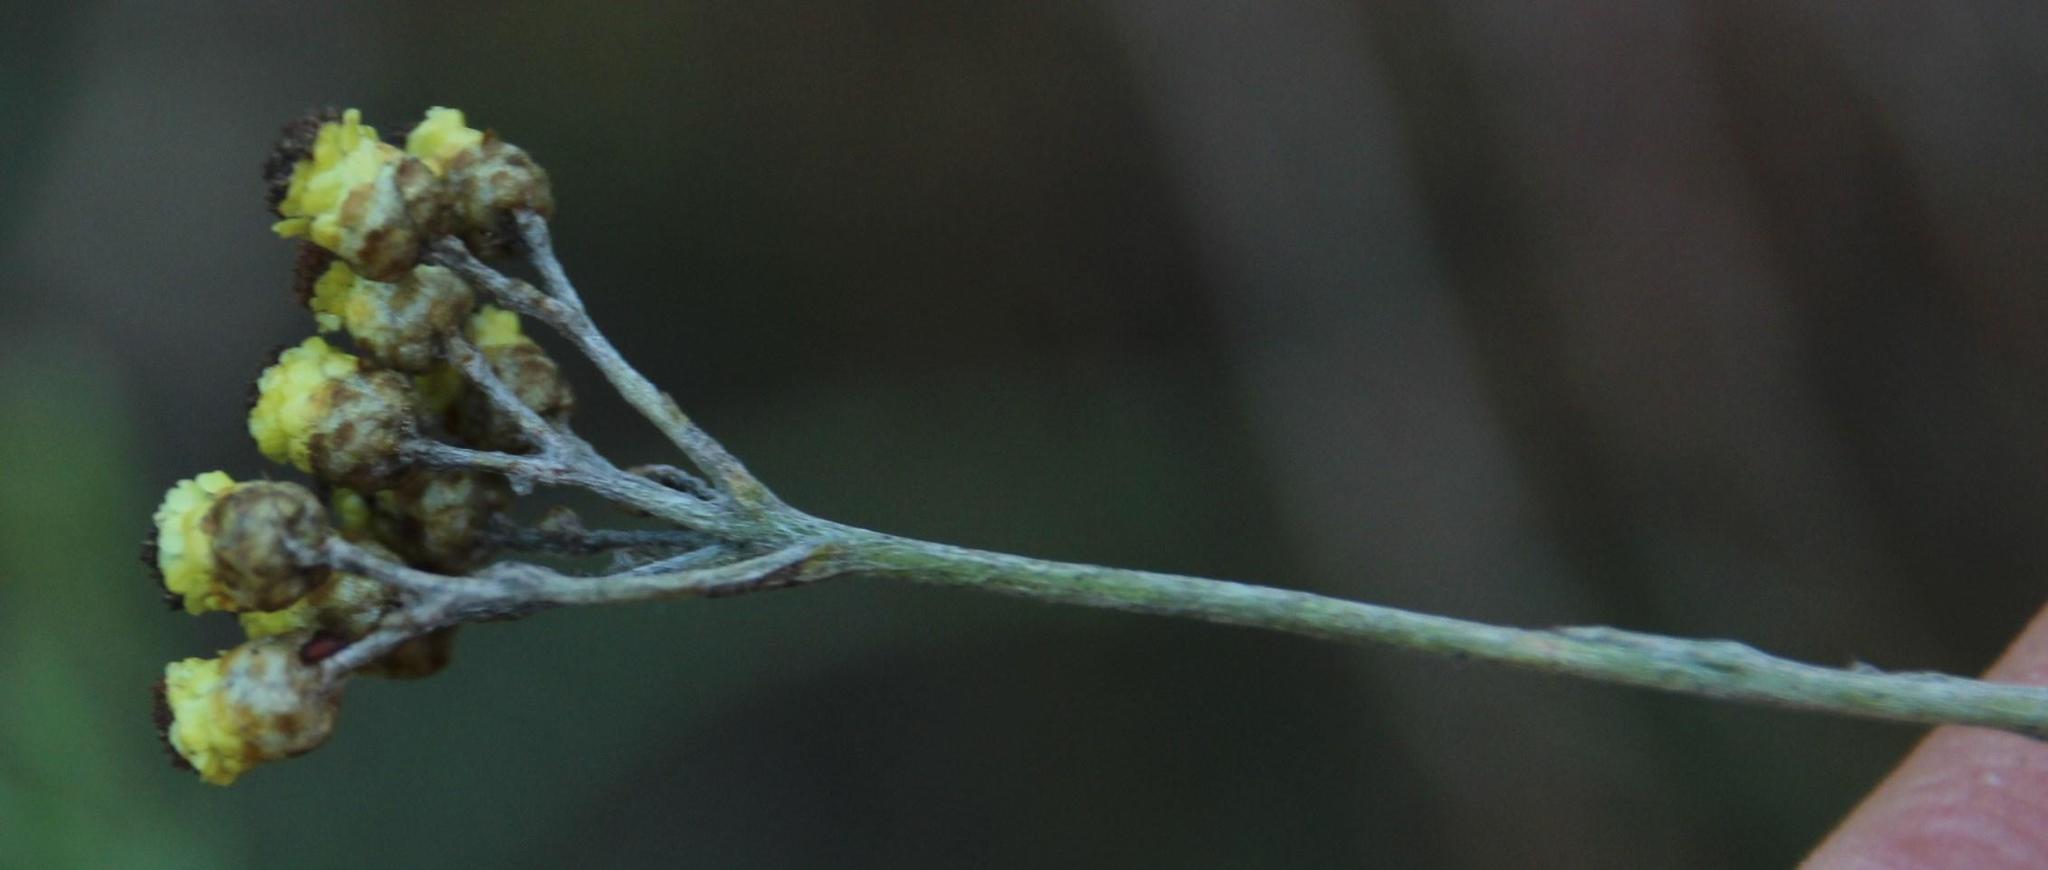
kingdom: Plantae
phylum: Tracheophyta
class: Magnoliopsida
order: Asterales
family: Asteraceae
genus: Helichrysum
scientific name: Helichrysum anomalum
